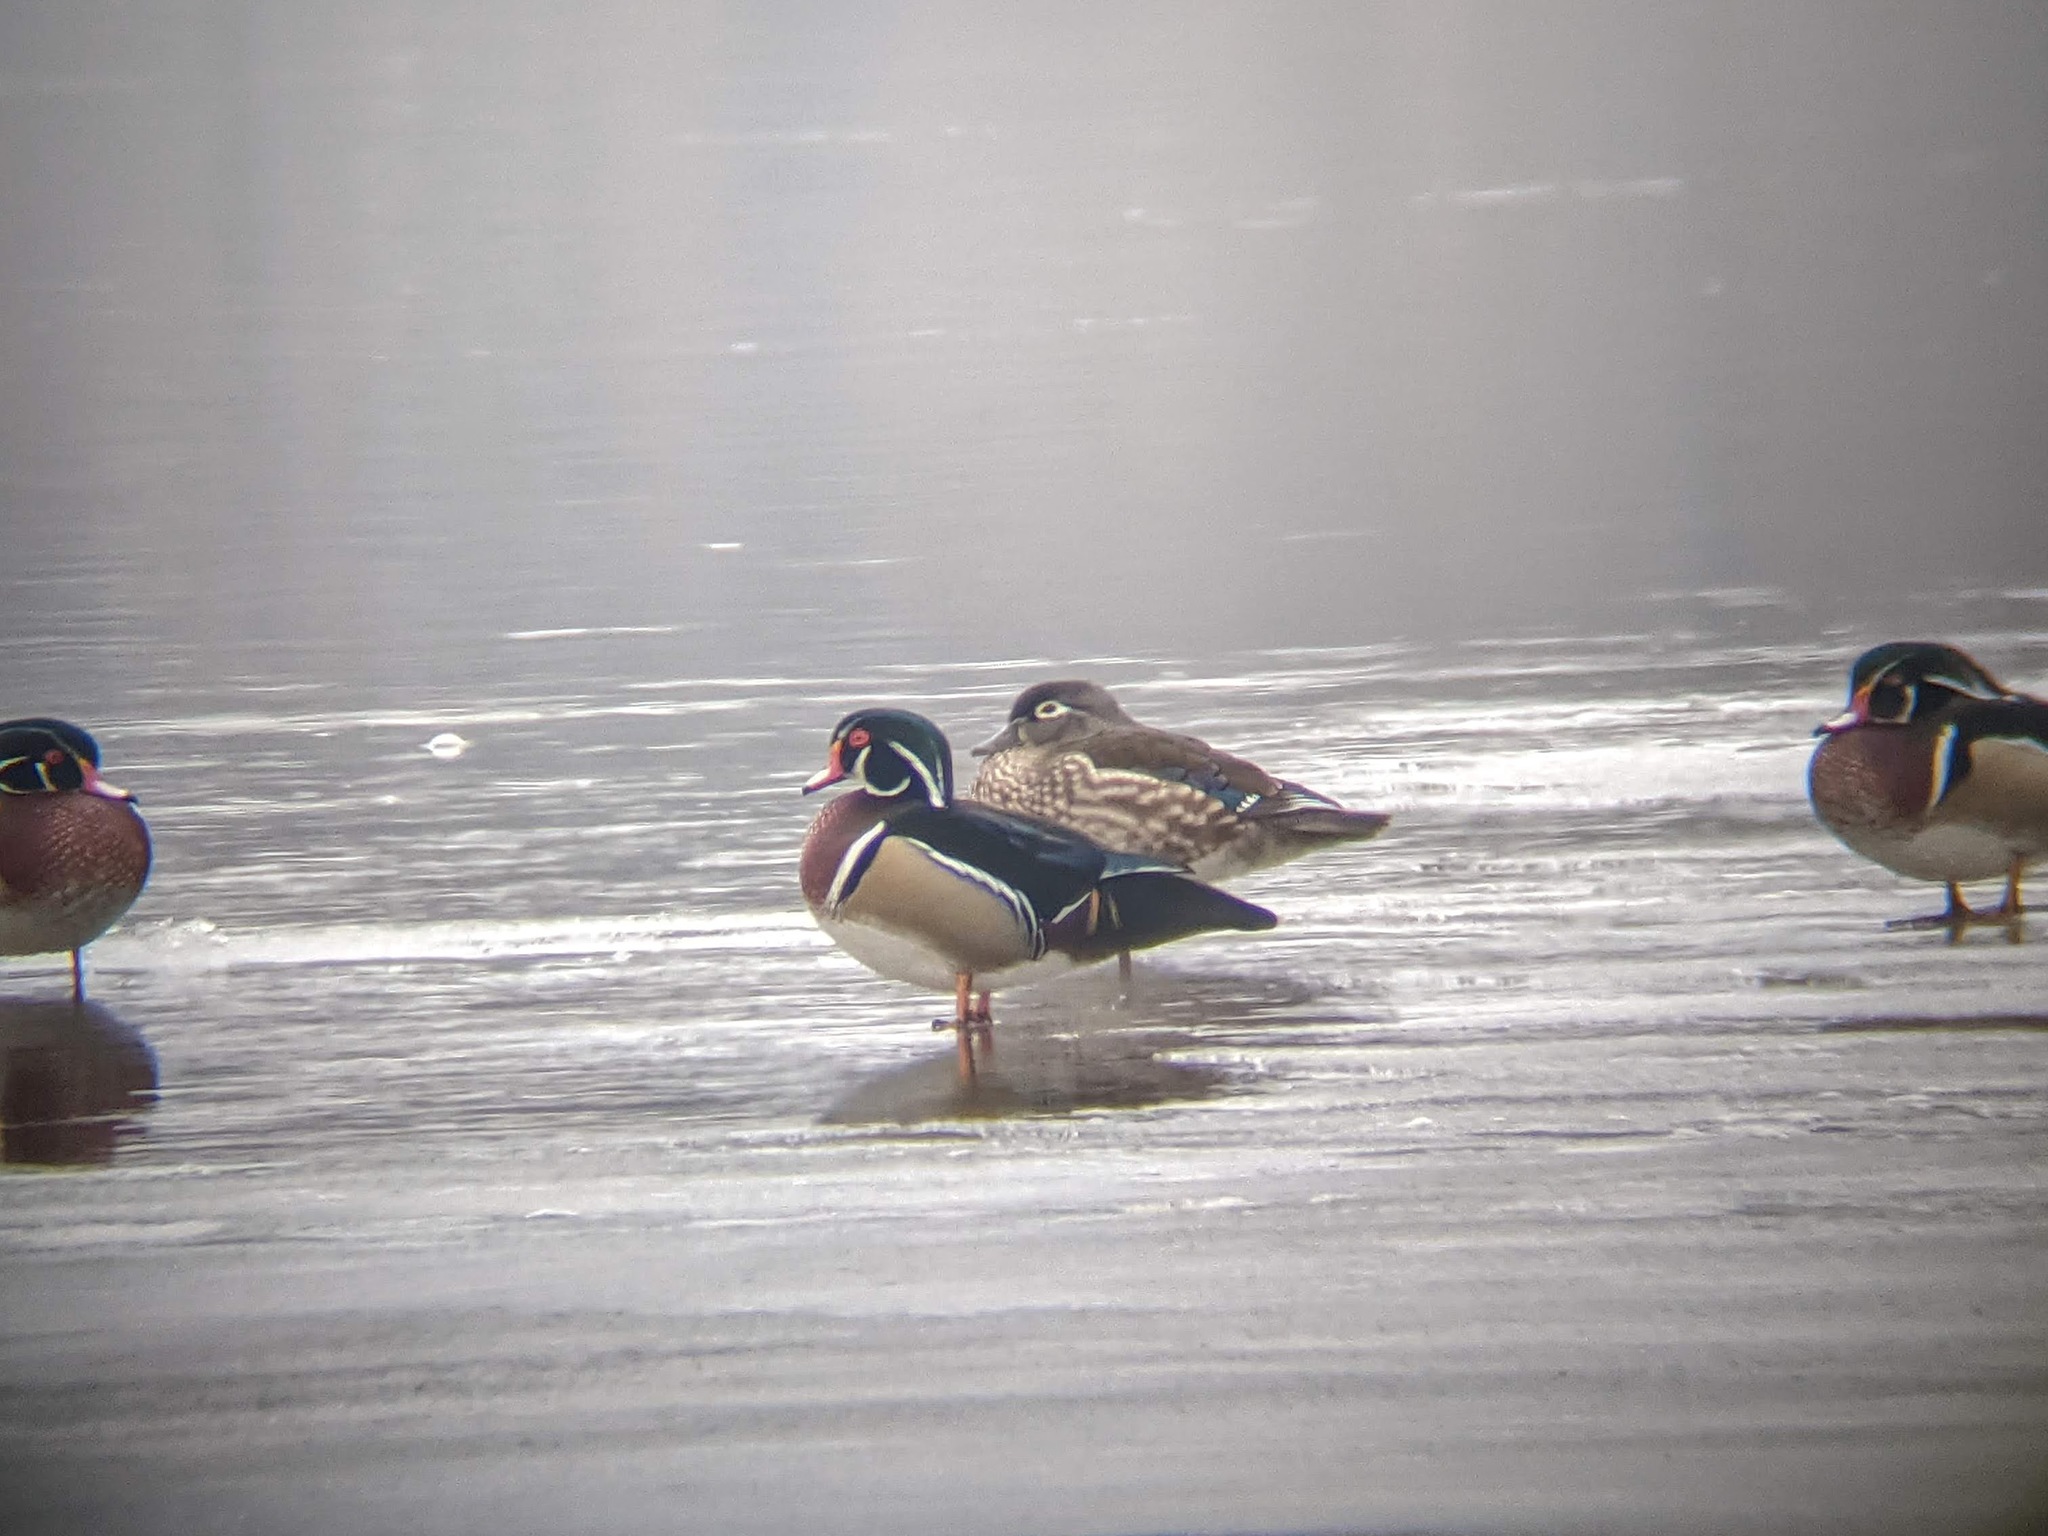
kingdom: Animalia
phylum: Chordata
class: Aves
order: Anseriformes
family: Anatidae
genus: Aix
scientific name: Aix sponsa
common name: Wood duck
